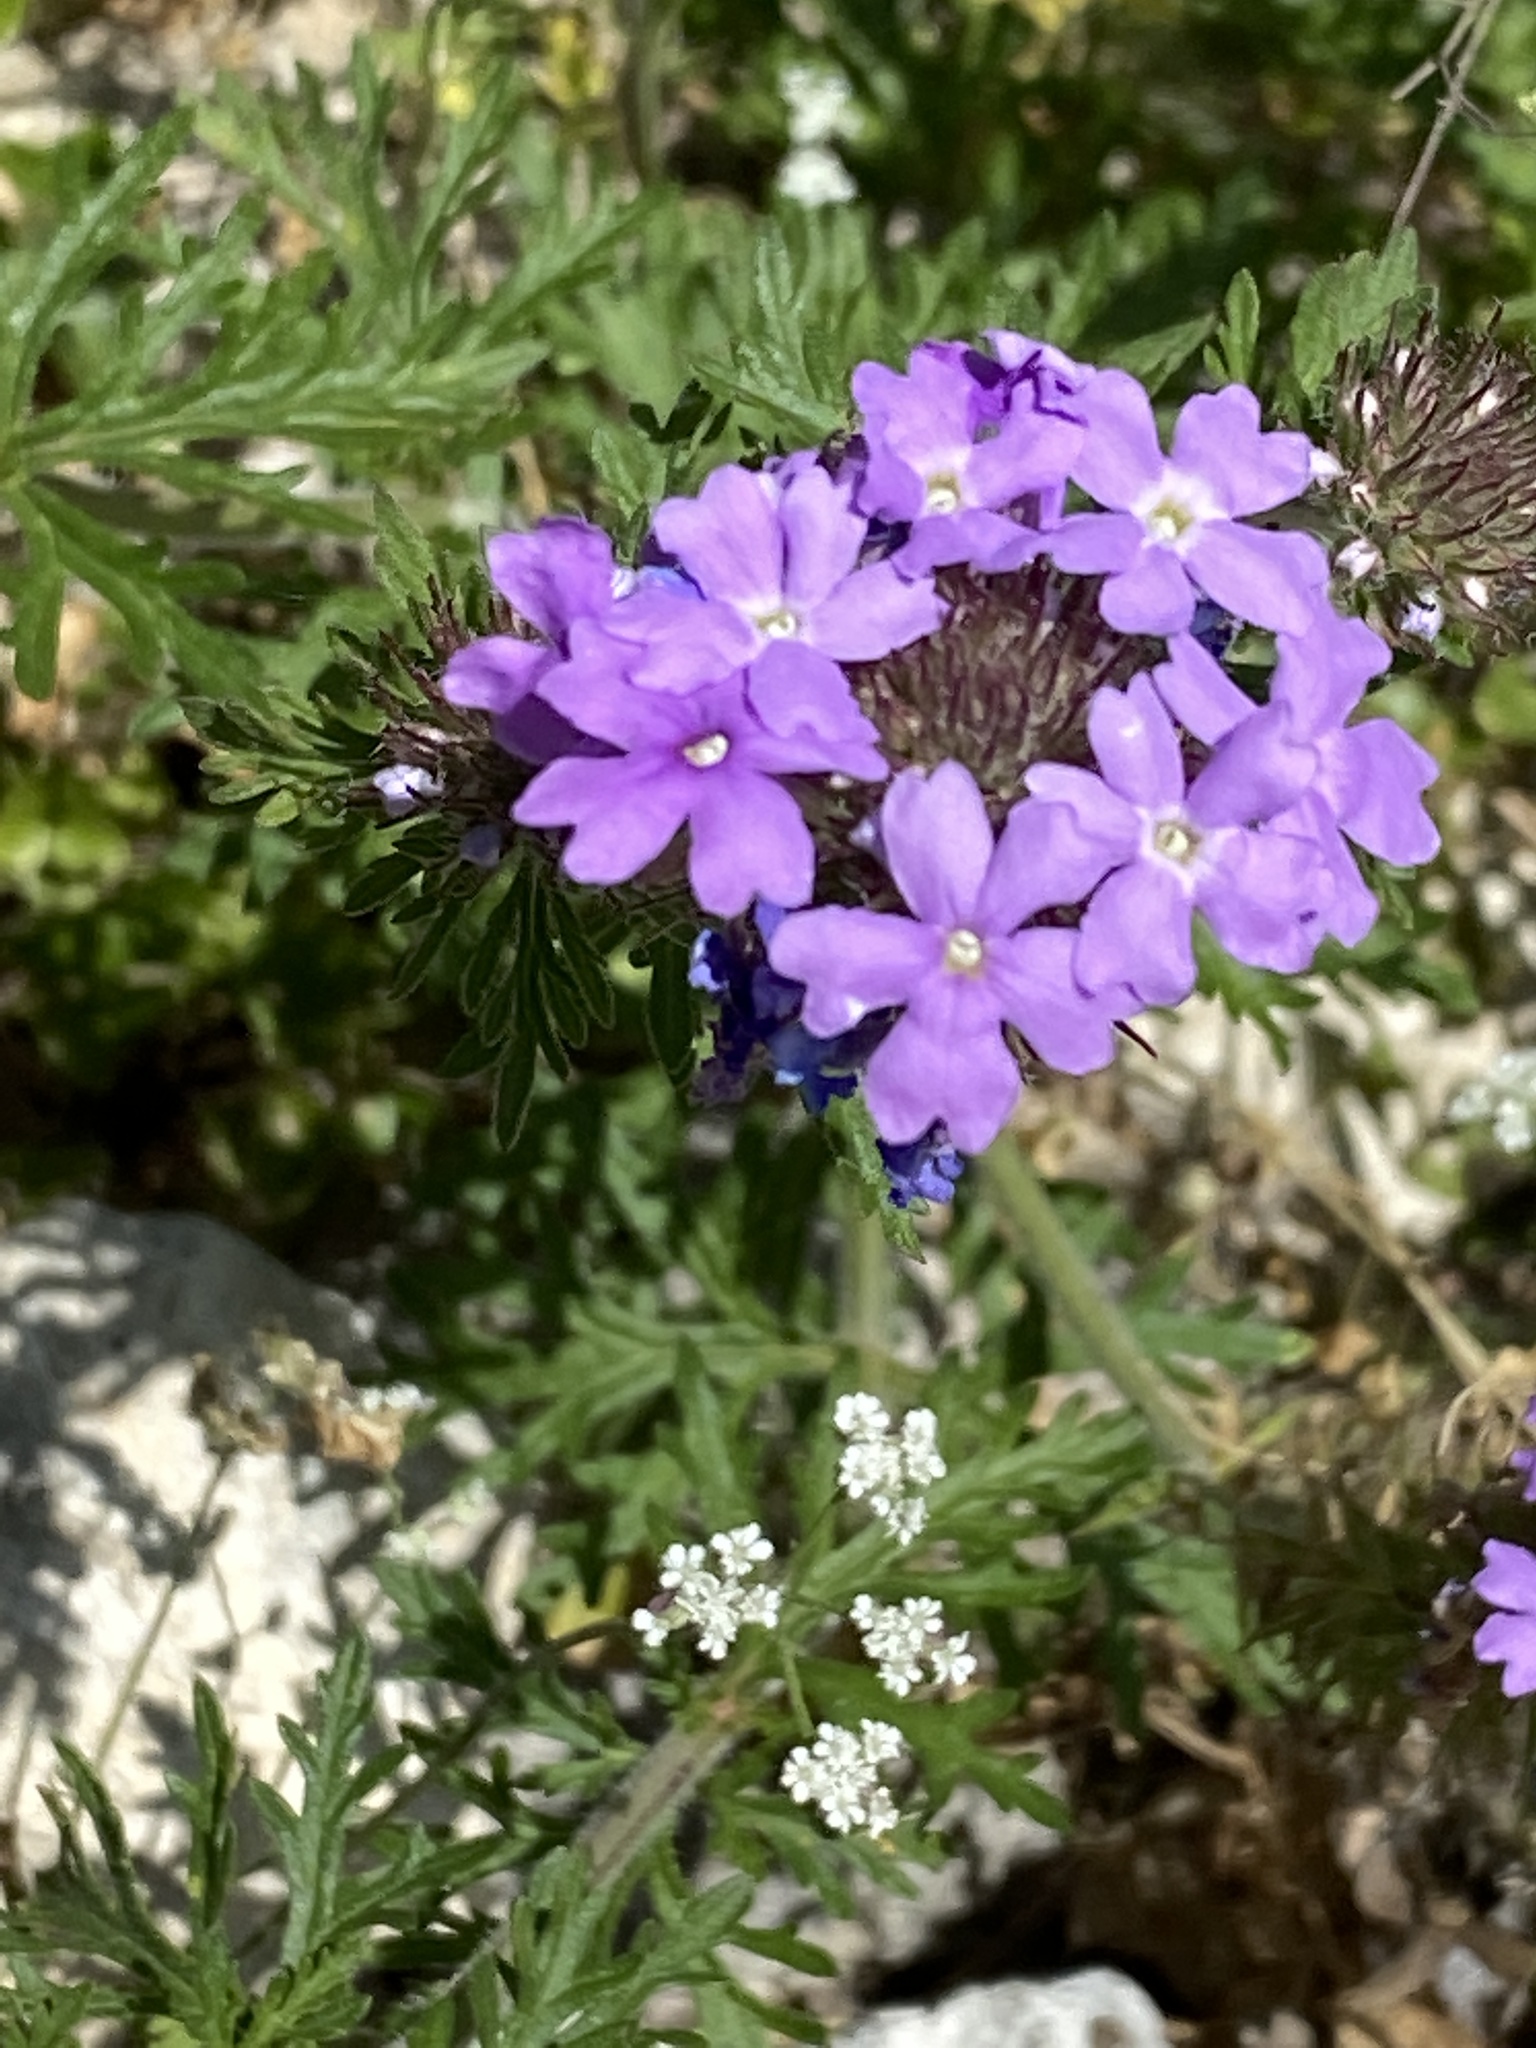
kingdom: Plantae
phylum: Tracheophyta
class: Magnoliopsida
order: Lamiales
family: Verbenaceae
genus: Verbena
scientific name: Verbena bipinnatifida
